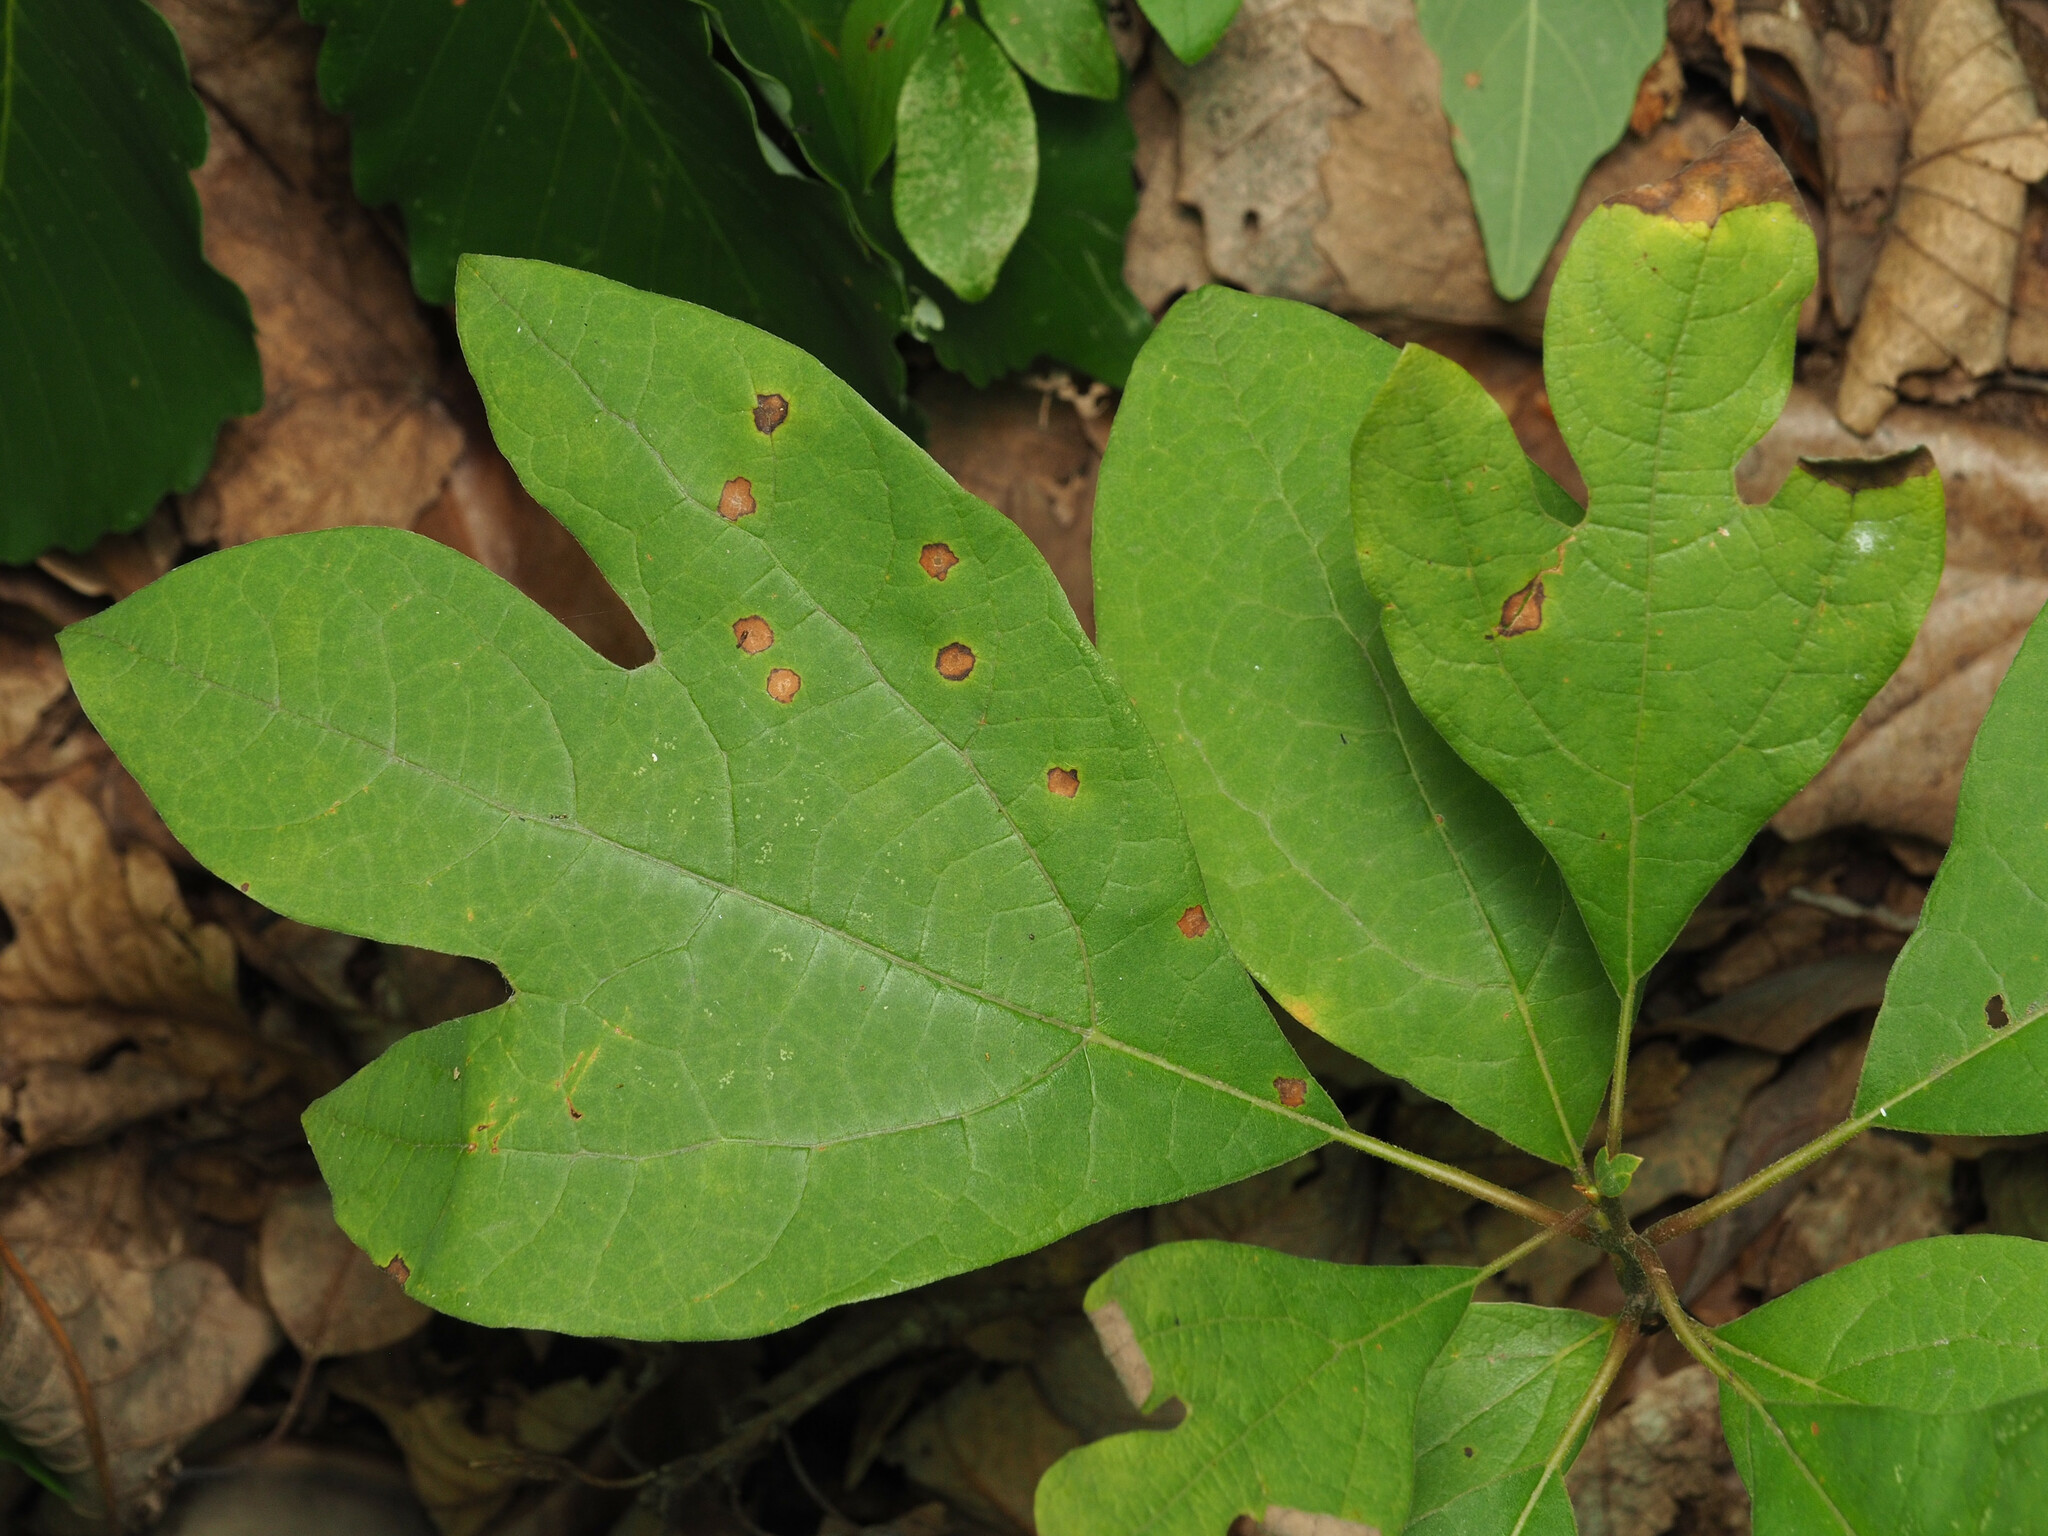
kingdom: Plantae
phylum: Tracheophyta
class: Magnoliopsida
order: Laurales
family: Lauraceae
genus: Sassafras
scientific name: Sassafras albidum
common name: Sassafras
